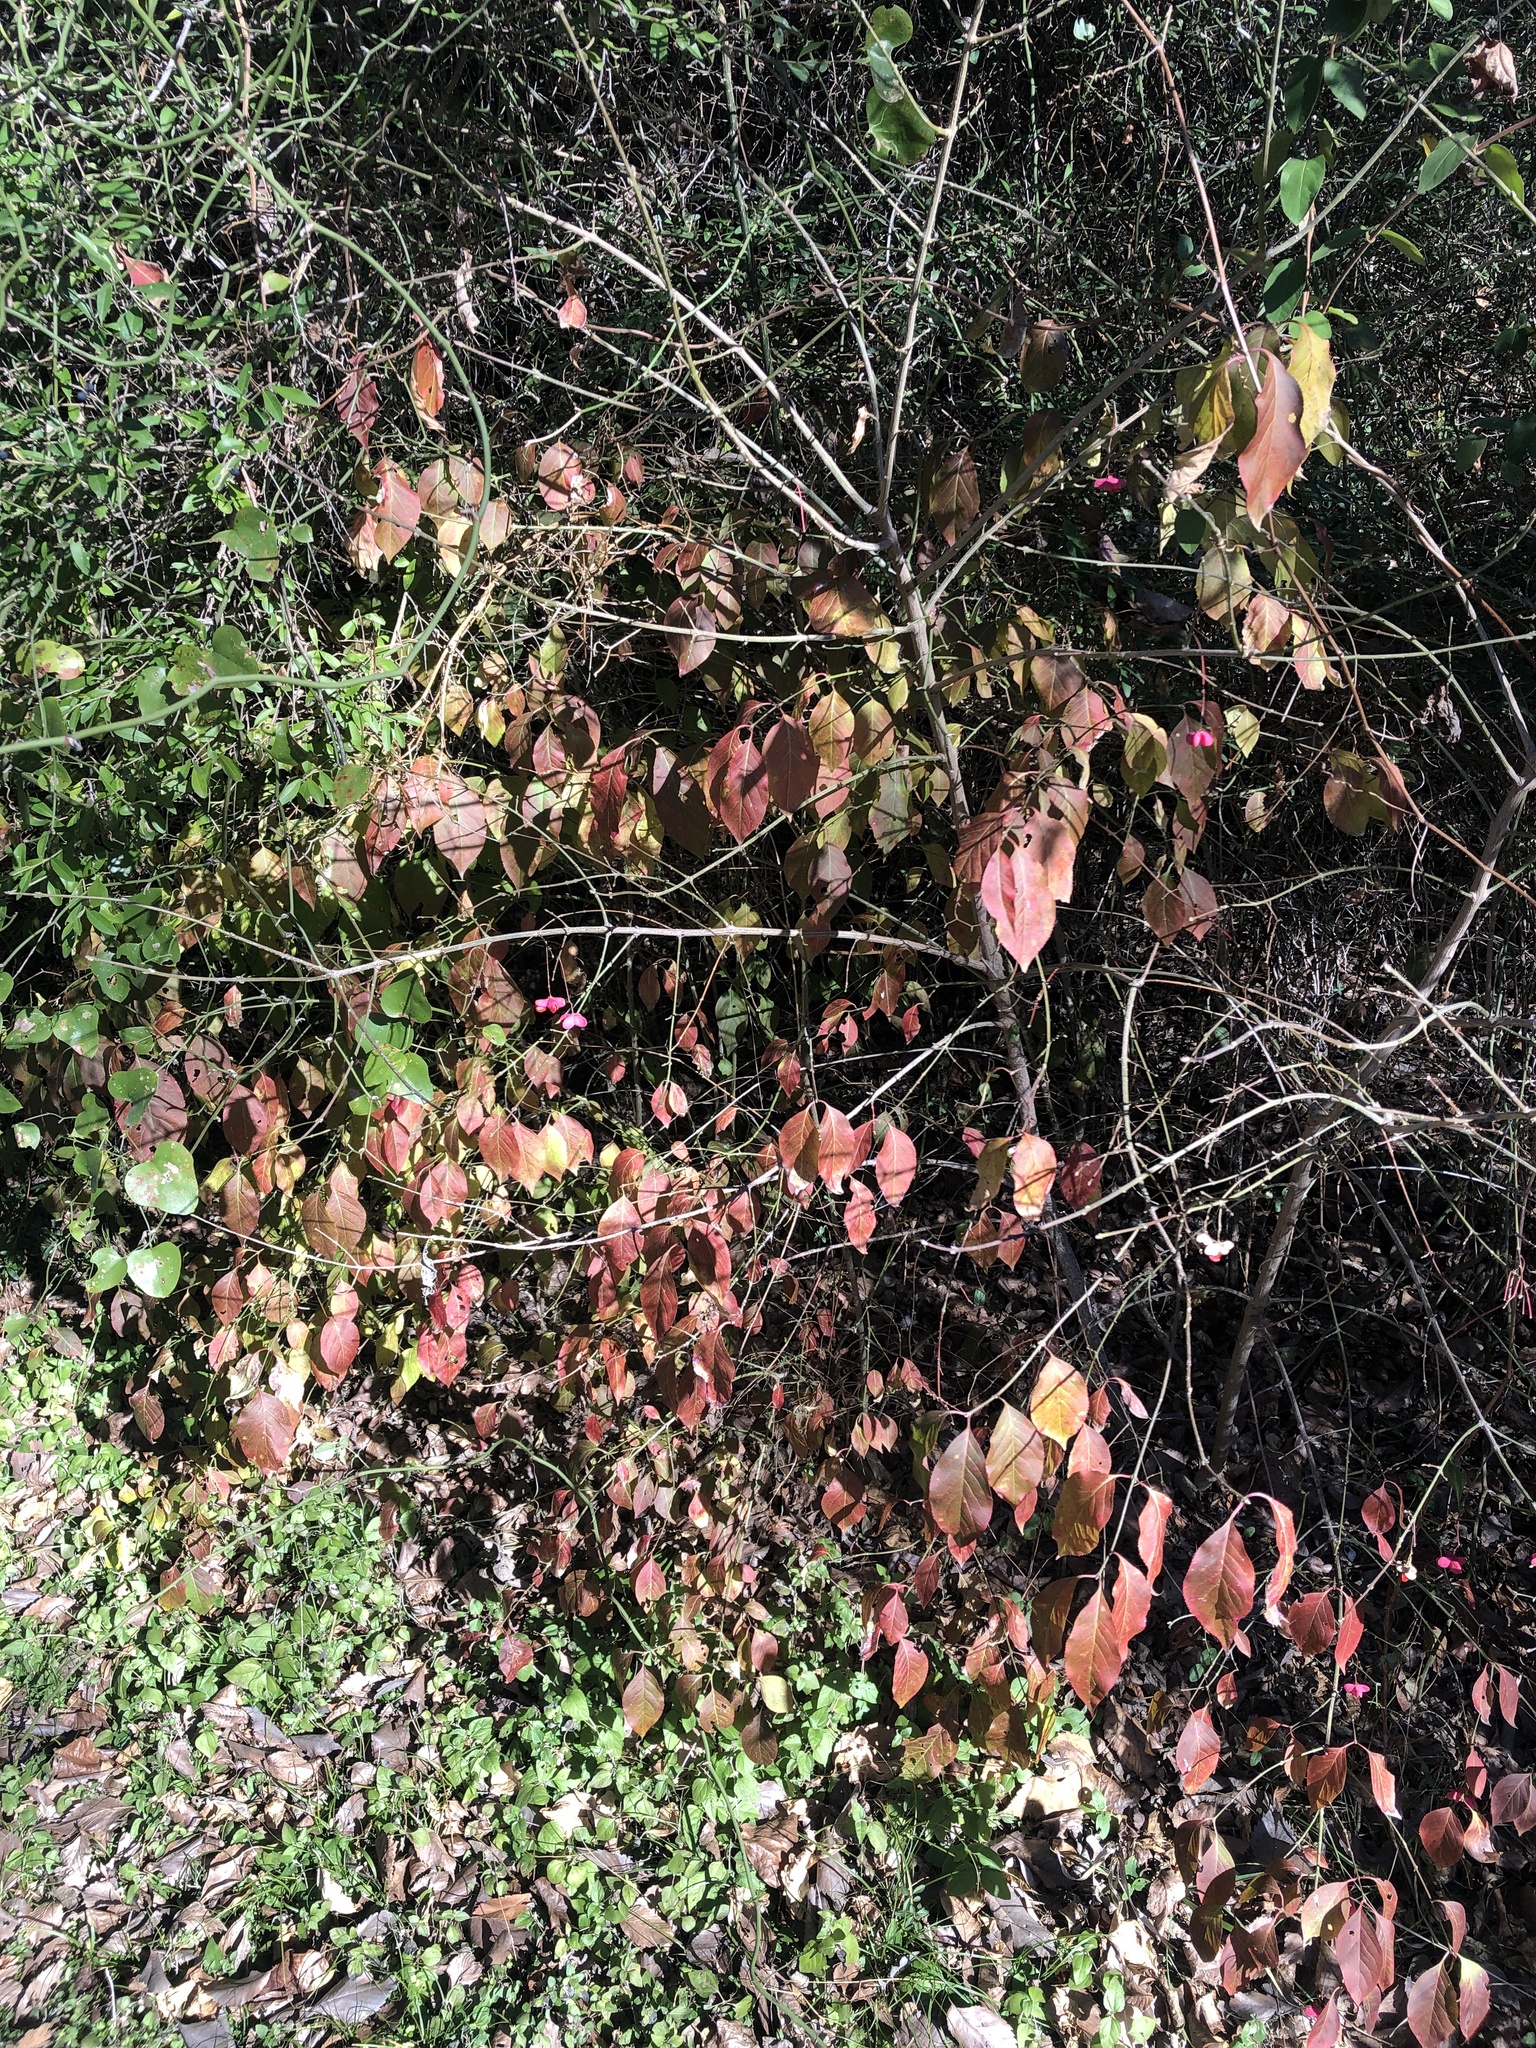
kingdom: Plantae
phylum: Tracheophyta
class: Magnoliopsida
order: Celastrales
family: Celastraceae
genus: Euonymus
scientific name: Euonymus atropurpureus
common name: Eastern wahoo
